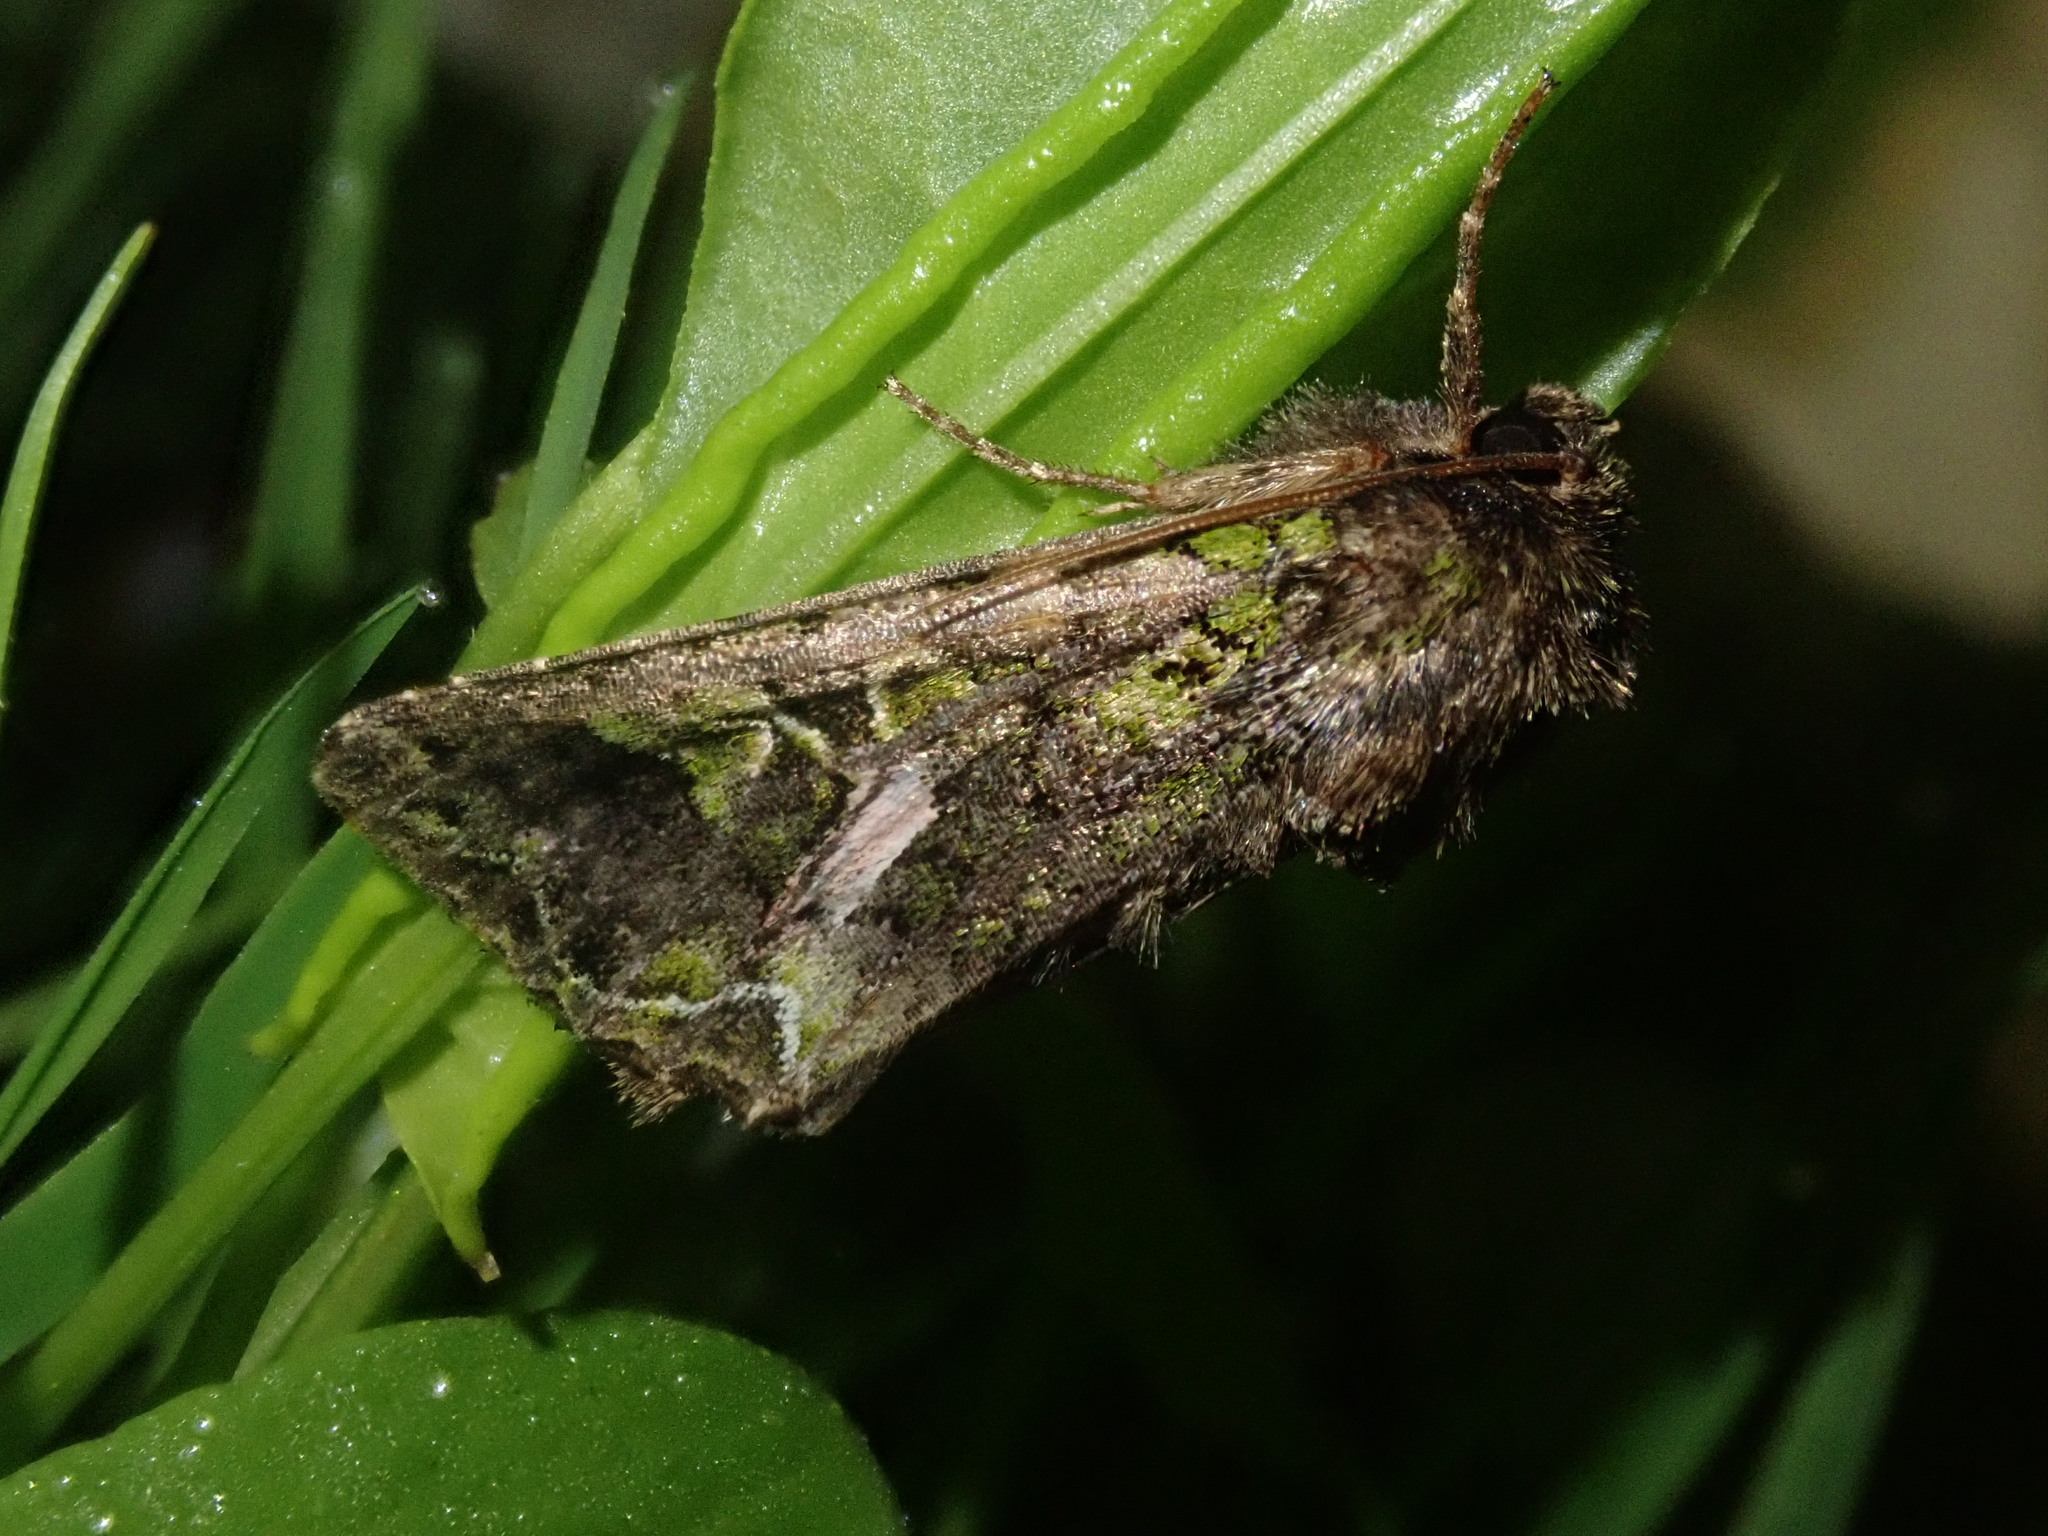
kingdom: Animalia
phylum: Arthropoda
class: Insecta
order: Lepidoptera
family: Noctuidae
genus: Trachea
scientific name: Trachea atriplicis
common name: Orache moth
